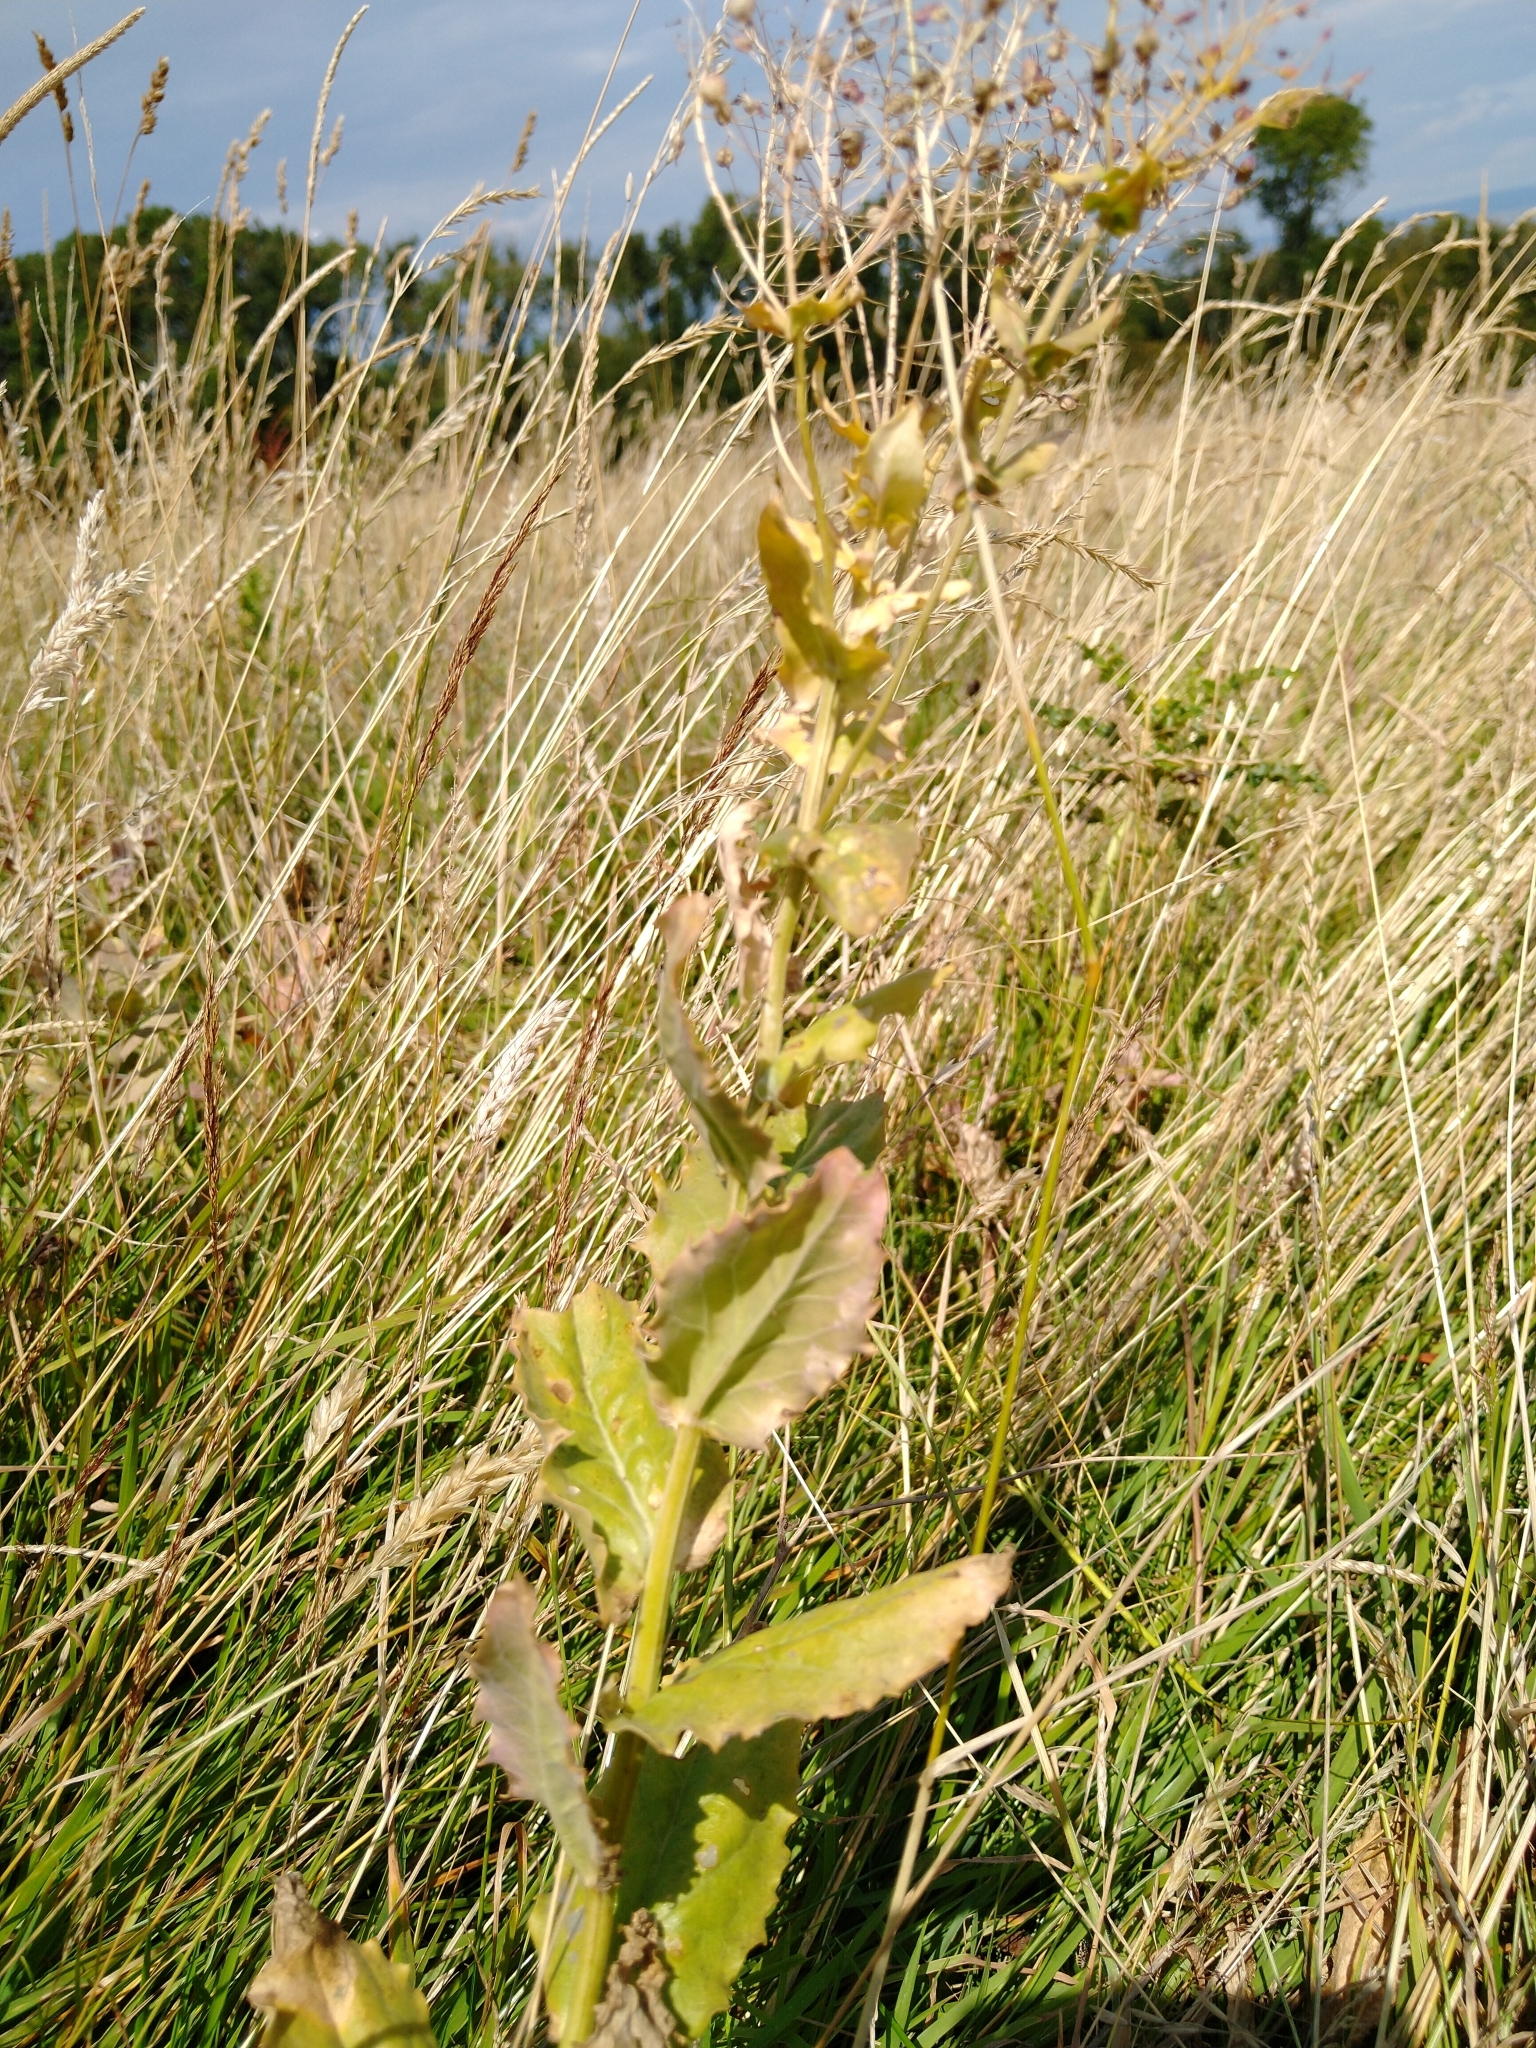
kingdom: Plantae
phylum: Tracheophyta
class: Magnoliopsida
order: Brassicales
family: Brassicaceae
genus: Lepidium
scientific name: Lepidium draba
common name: Hoary cress
